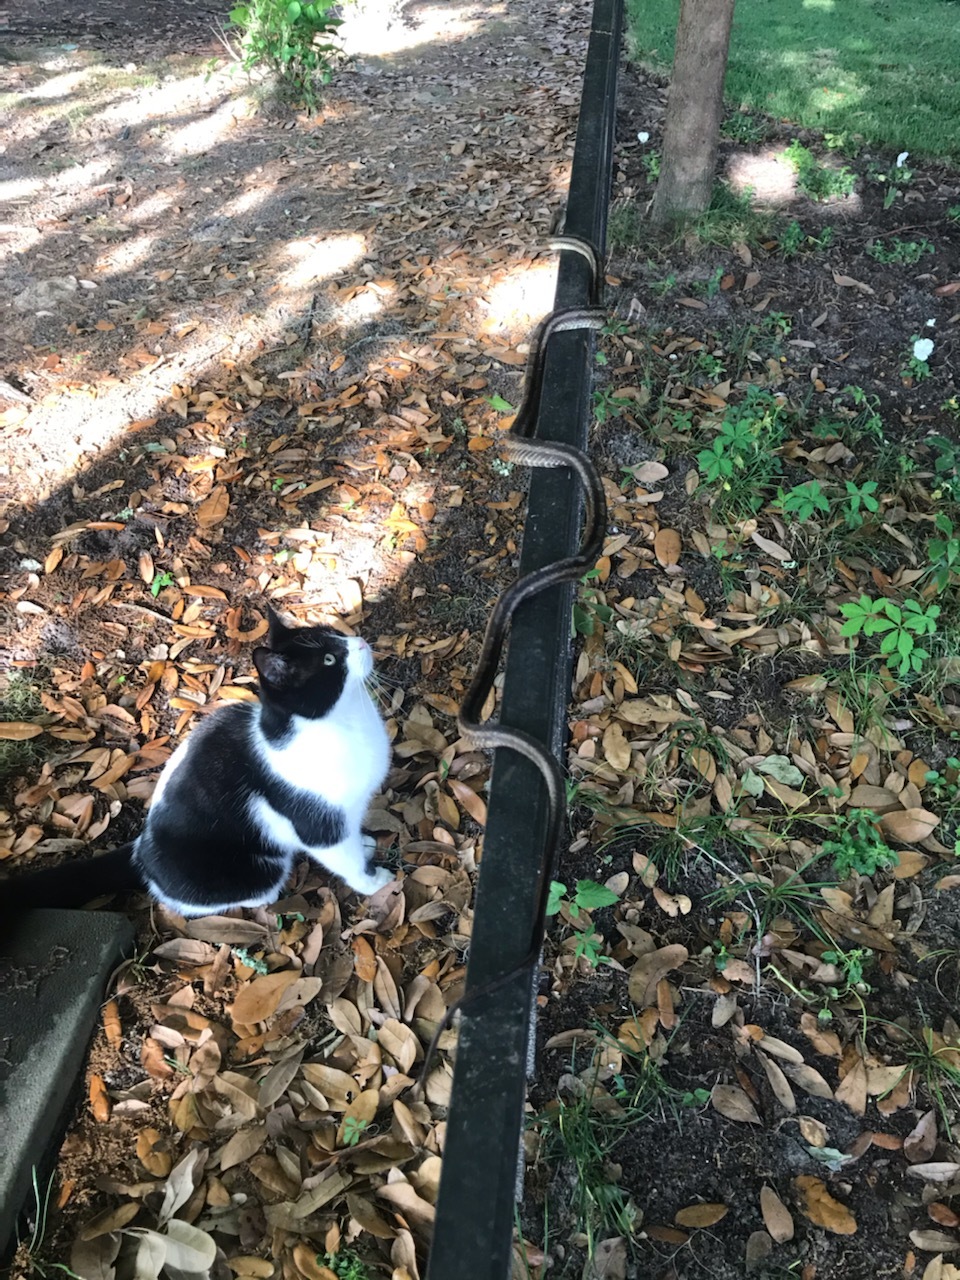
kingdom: Animalia
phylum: Chordata
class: Squamata
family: Colubridae
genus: Pantherophis
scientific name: Pantherophis alleghaniensis
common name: Eastern rat snake
